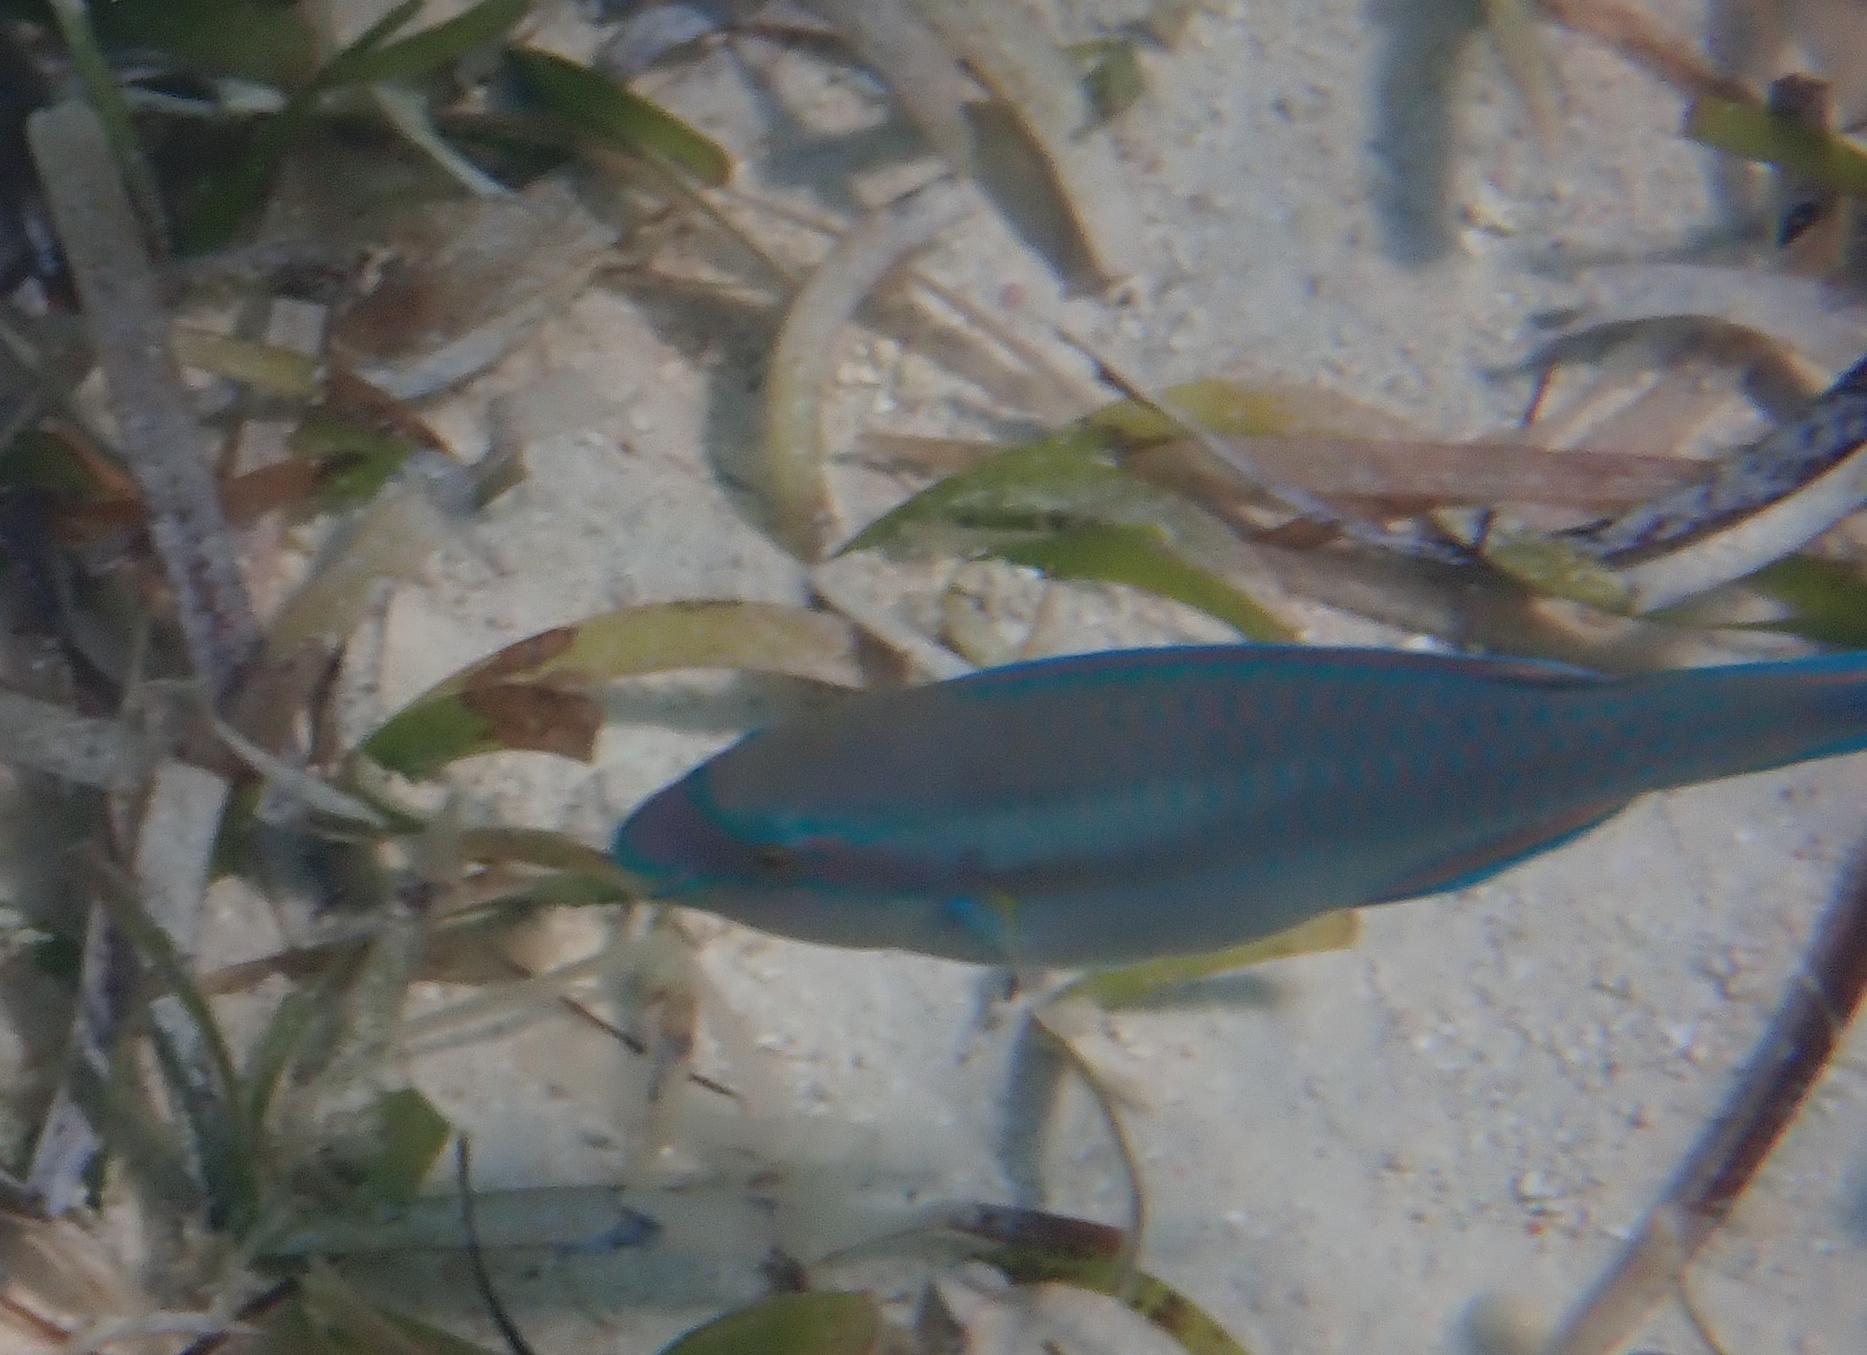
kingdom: Animalia
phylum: Chordata
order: Perciformes
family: Scaridae
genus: Scarus
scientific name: Scarus iseri
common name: Striped parrotfish
